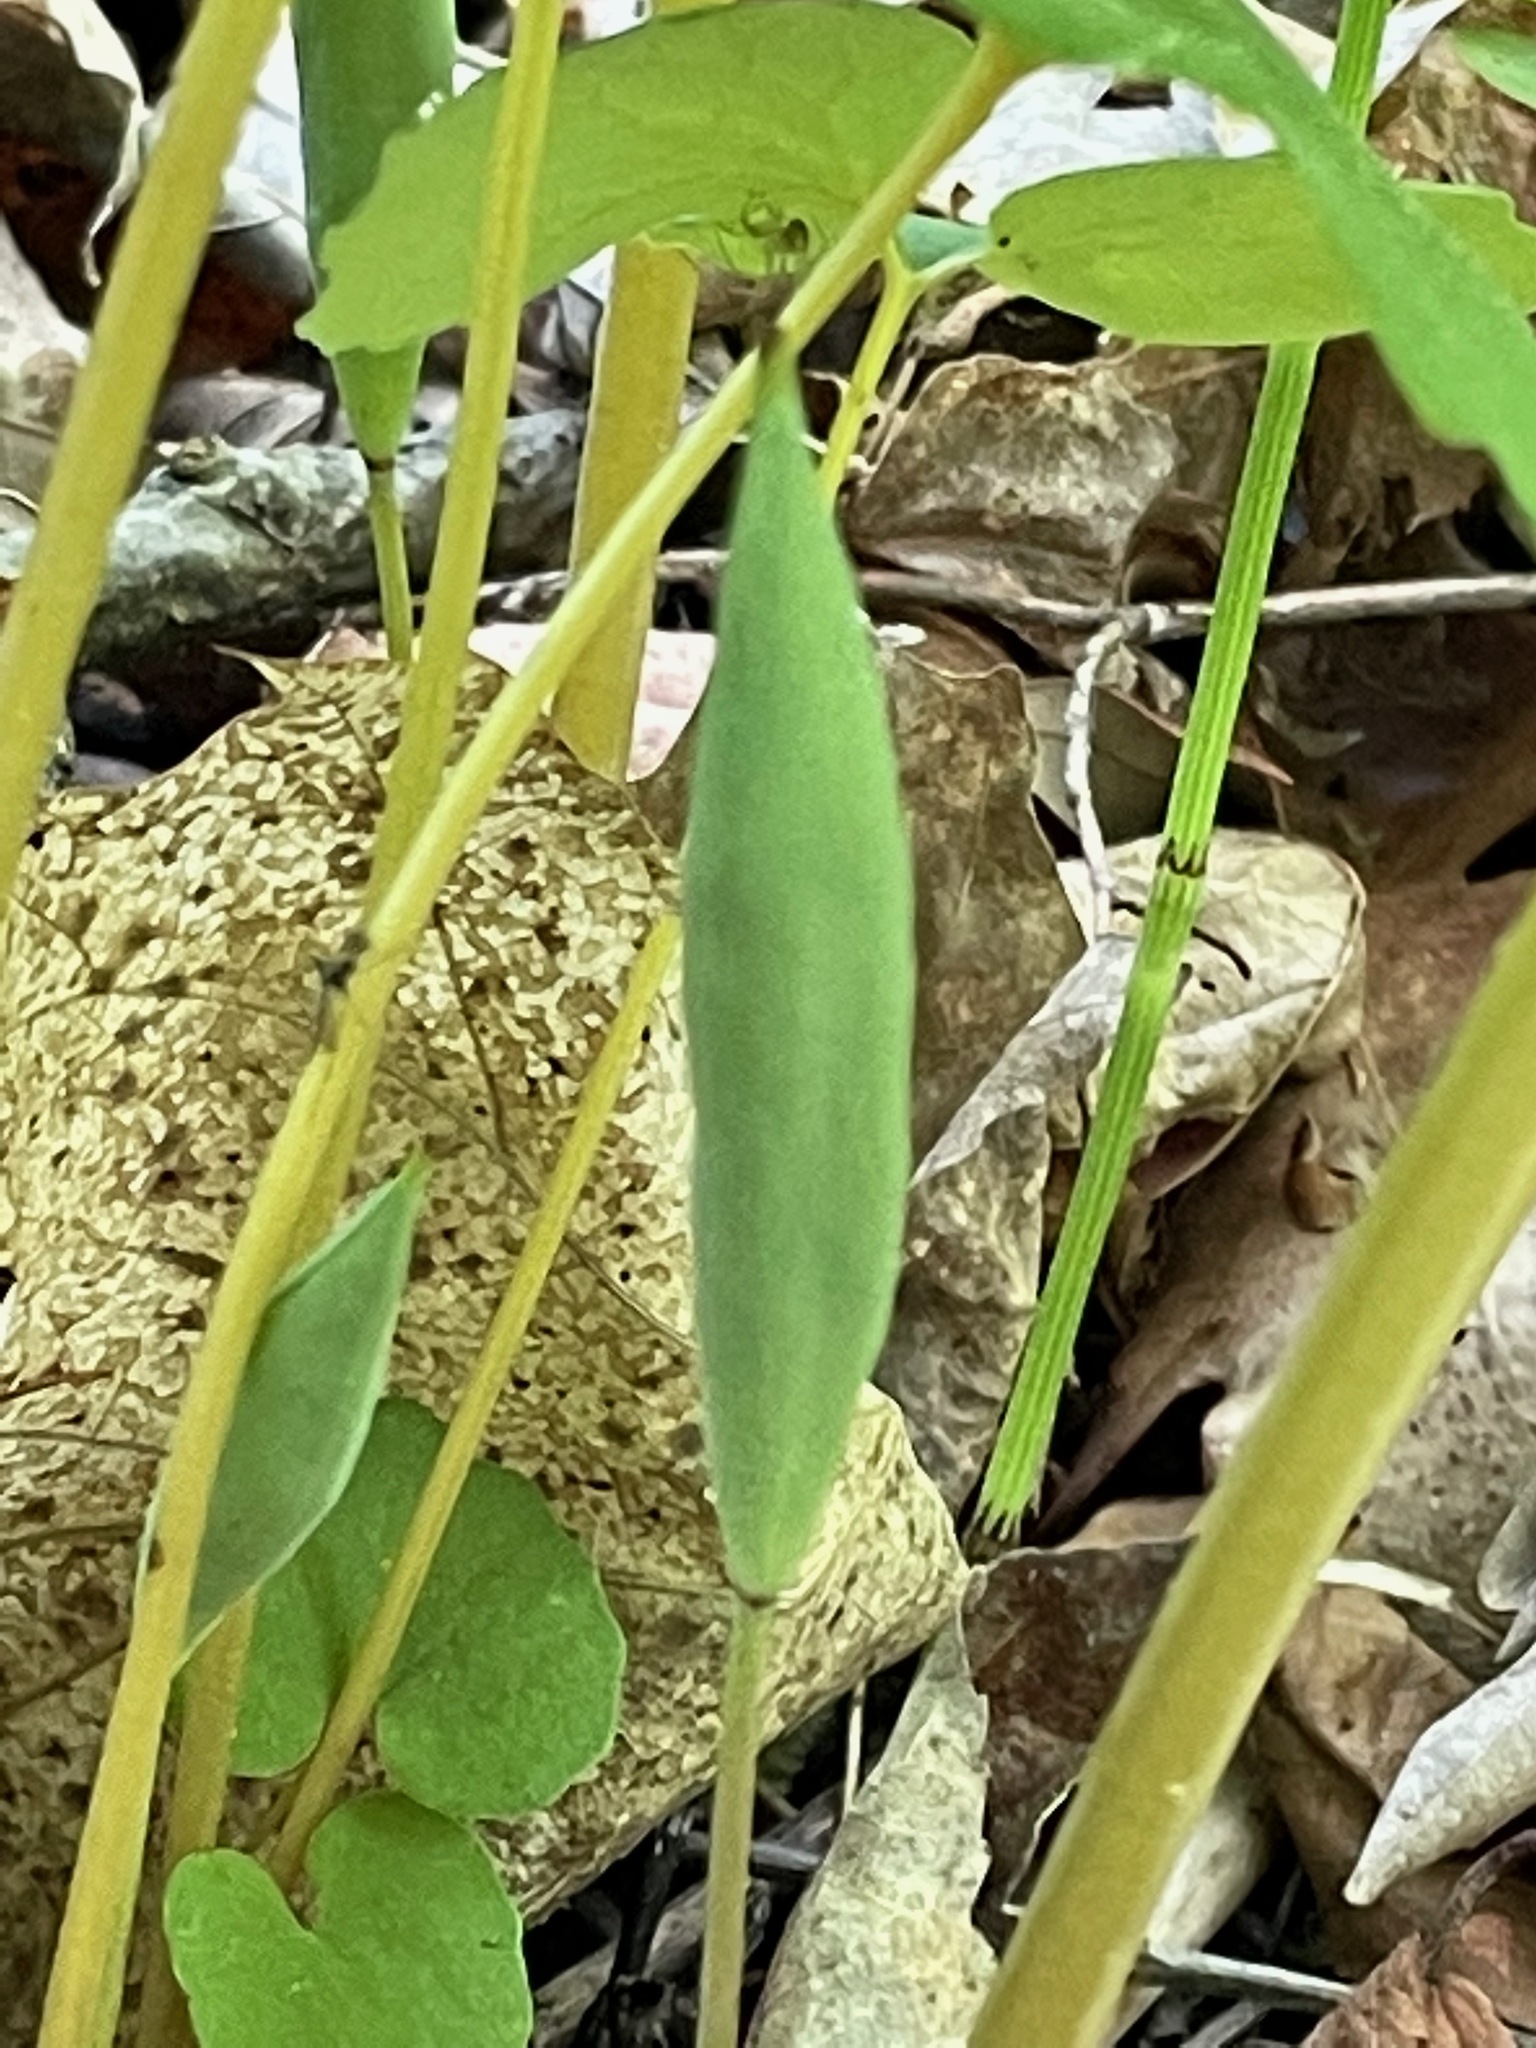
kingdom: Plantae
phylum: Tracheophyta
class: Magnoliopsida
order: Ranunculales
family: Papaveraceae
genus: Sanguinaria
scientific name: Sanguinaria canadensis
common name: Bloodroot
